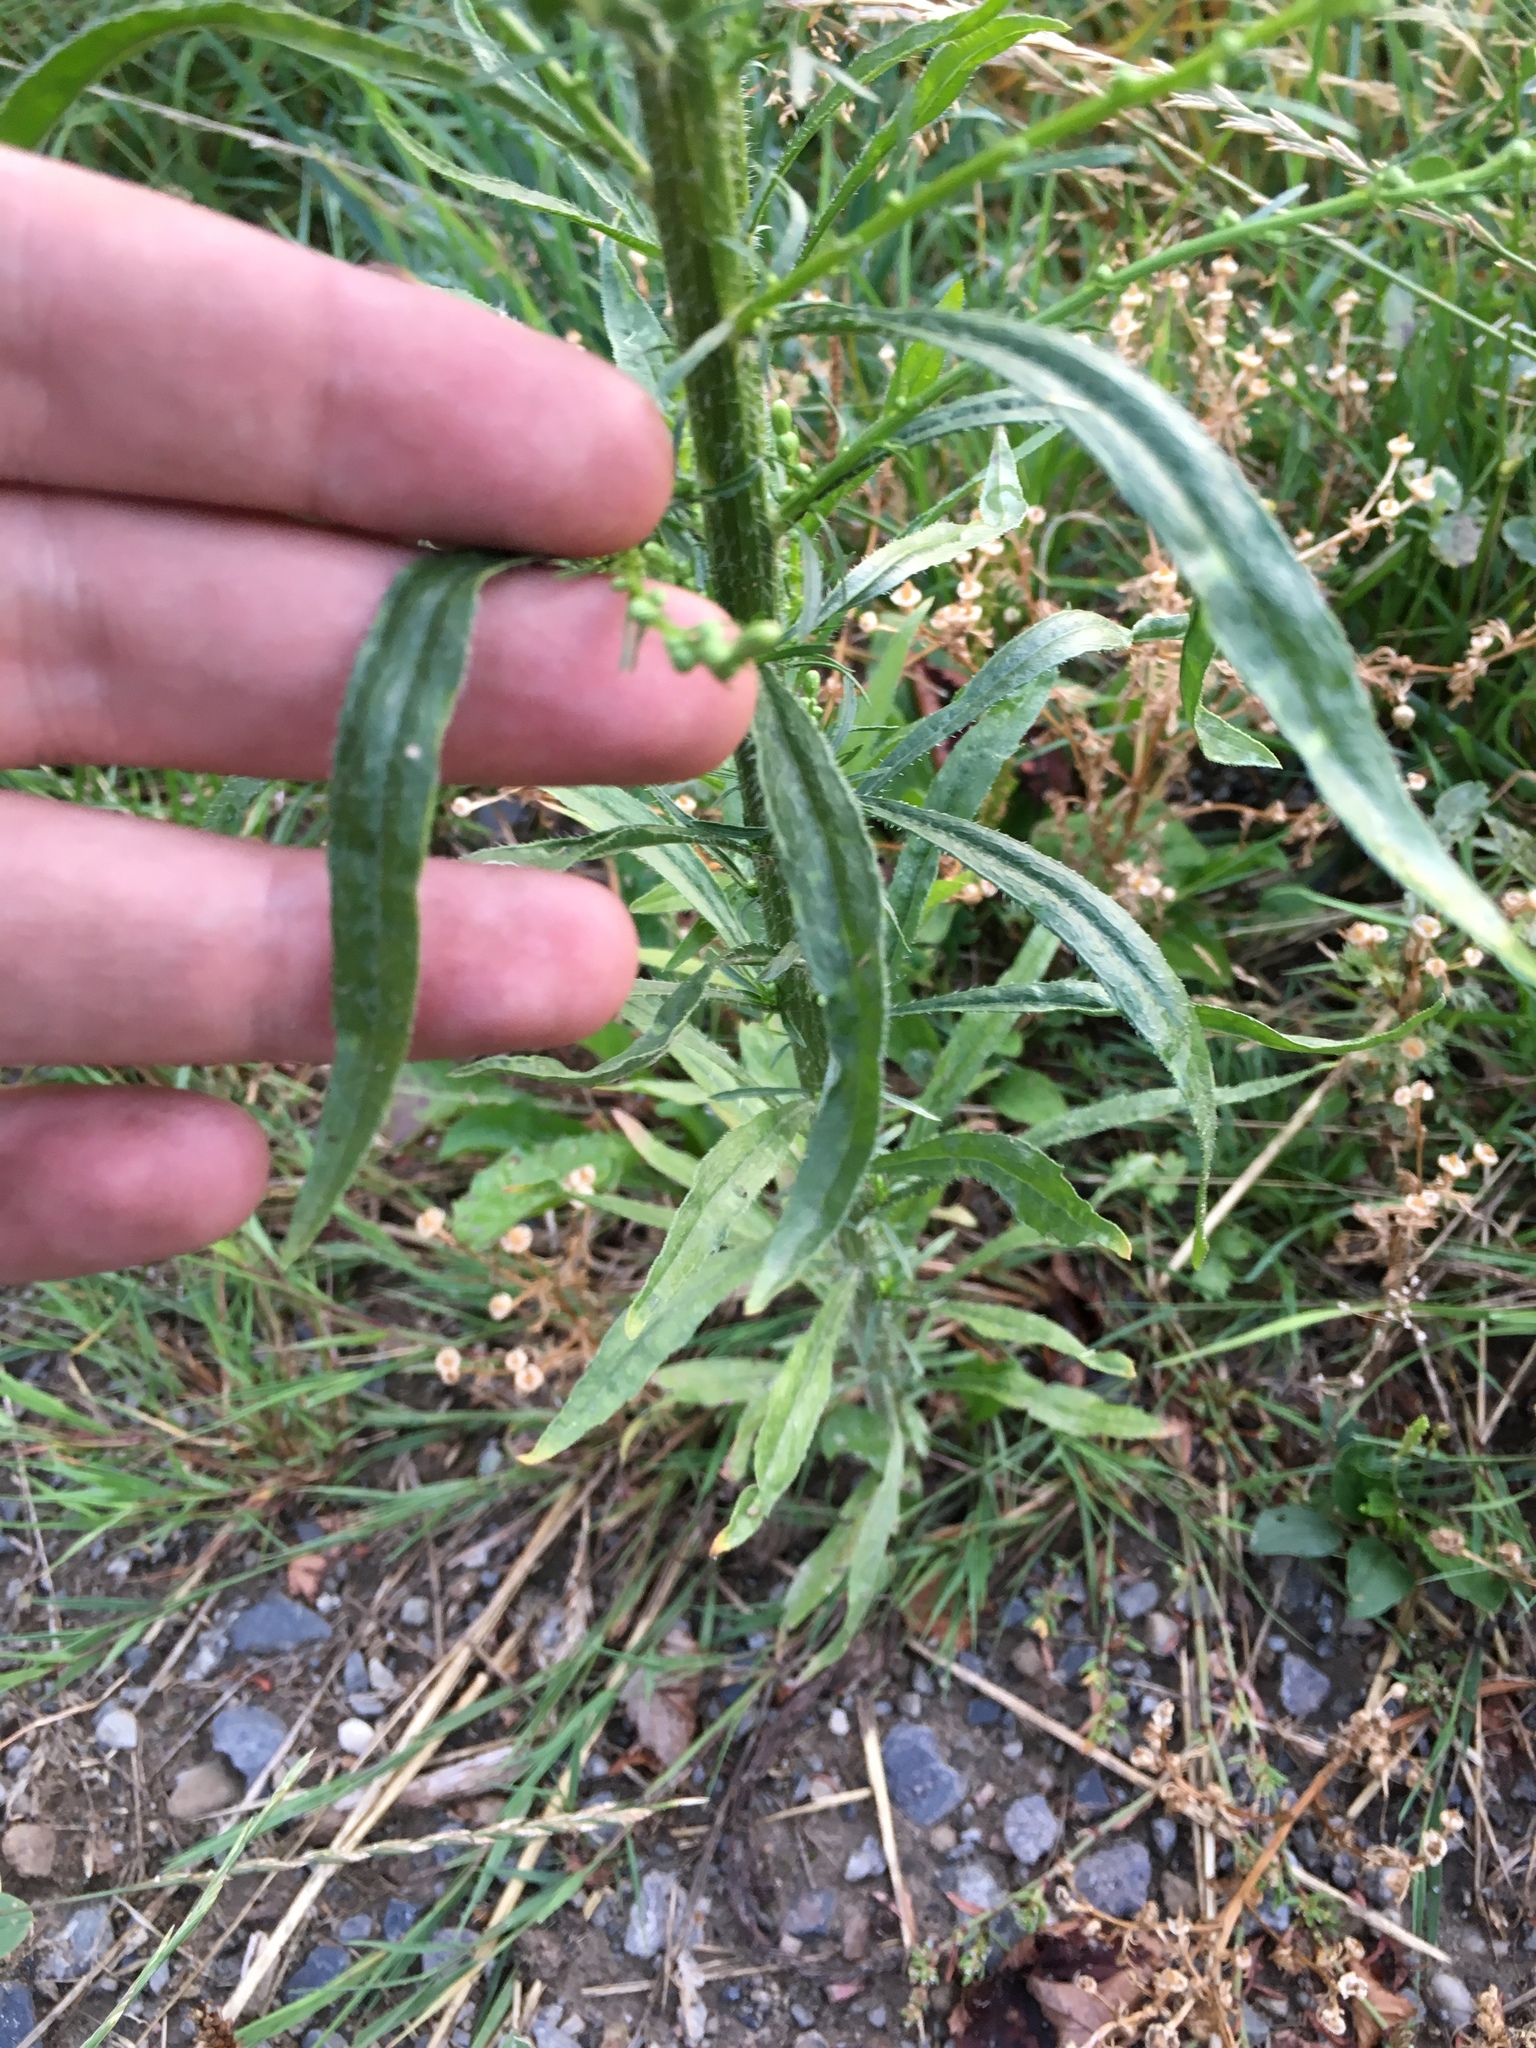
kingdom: Plantae
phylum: Tracheophyta
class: Magnoliopsida
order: Asterales
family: Asteraceae
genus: Erigeron
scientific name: Erigeron canadensis
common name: Canadian fleabane
